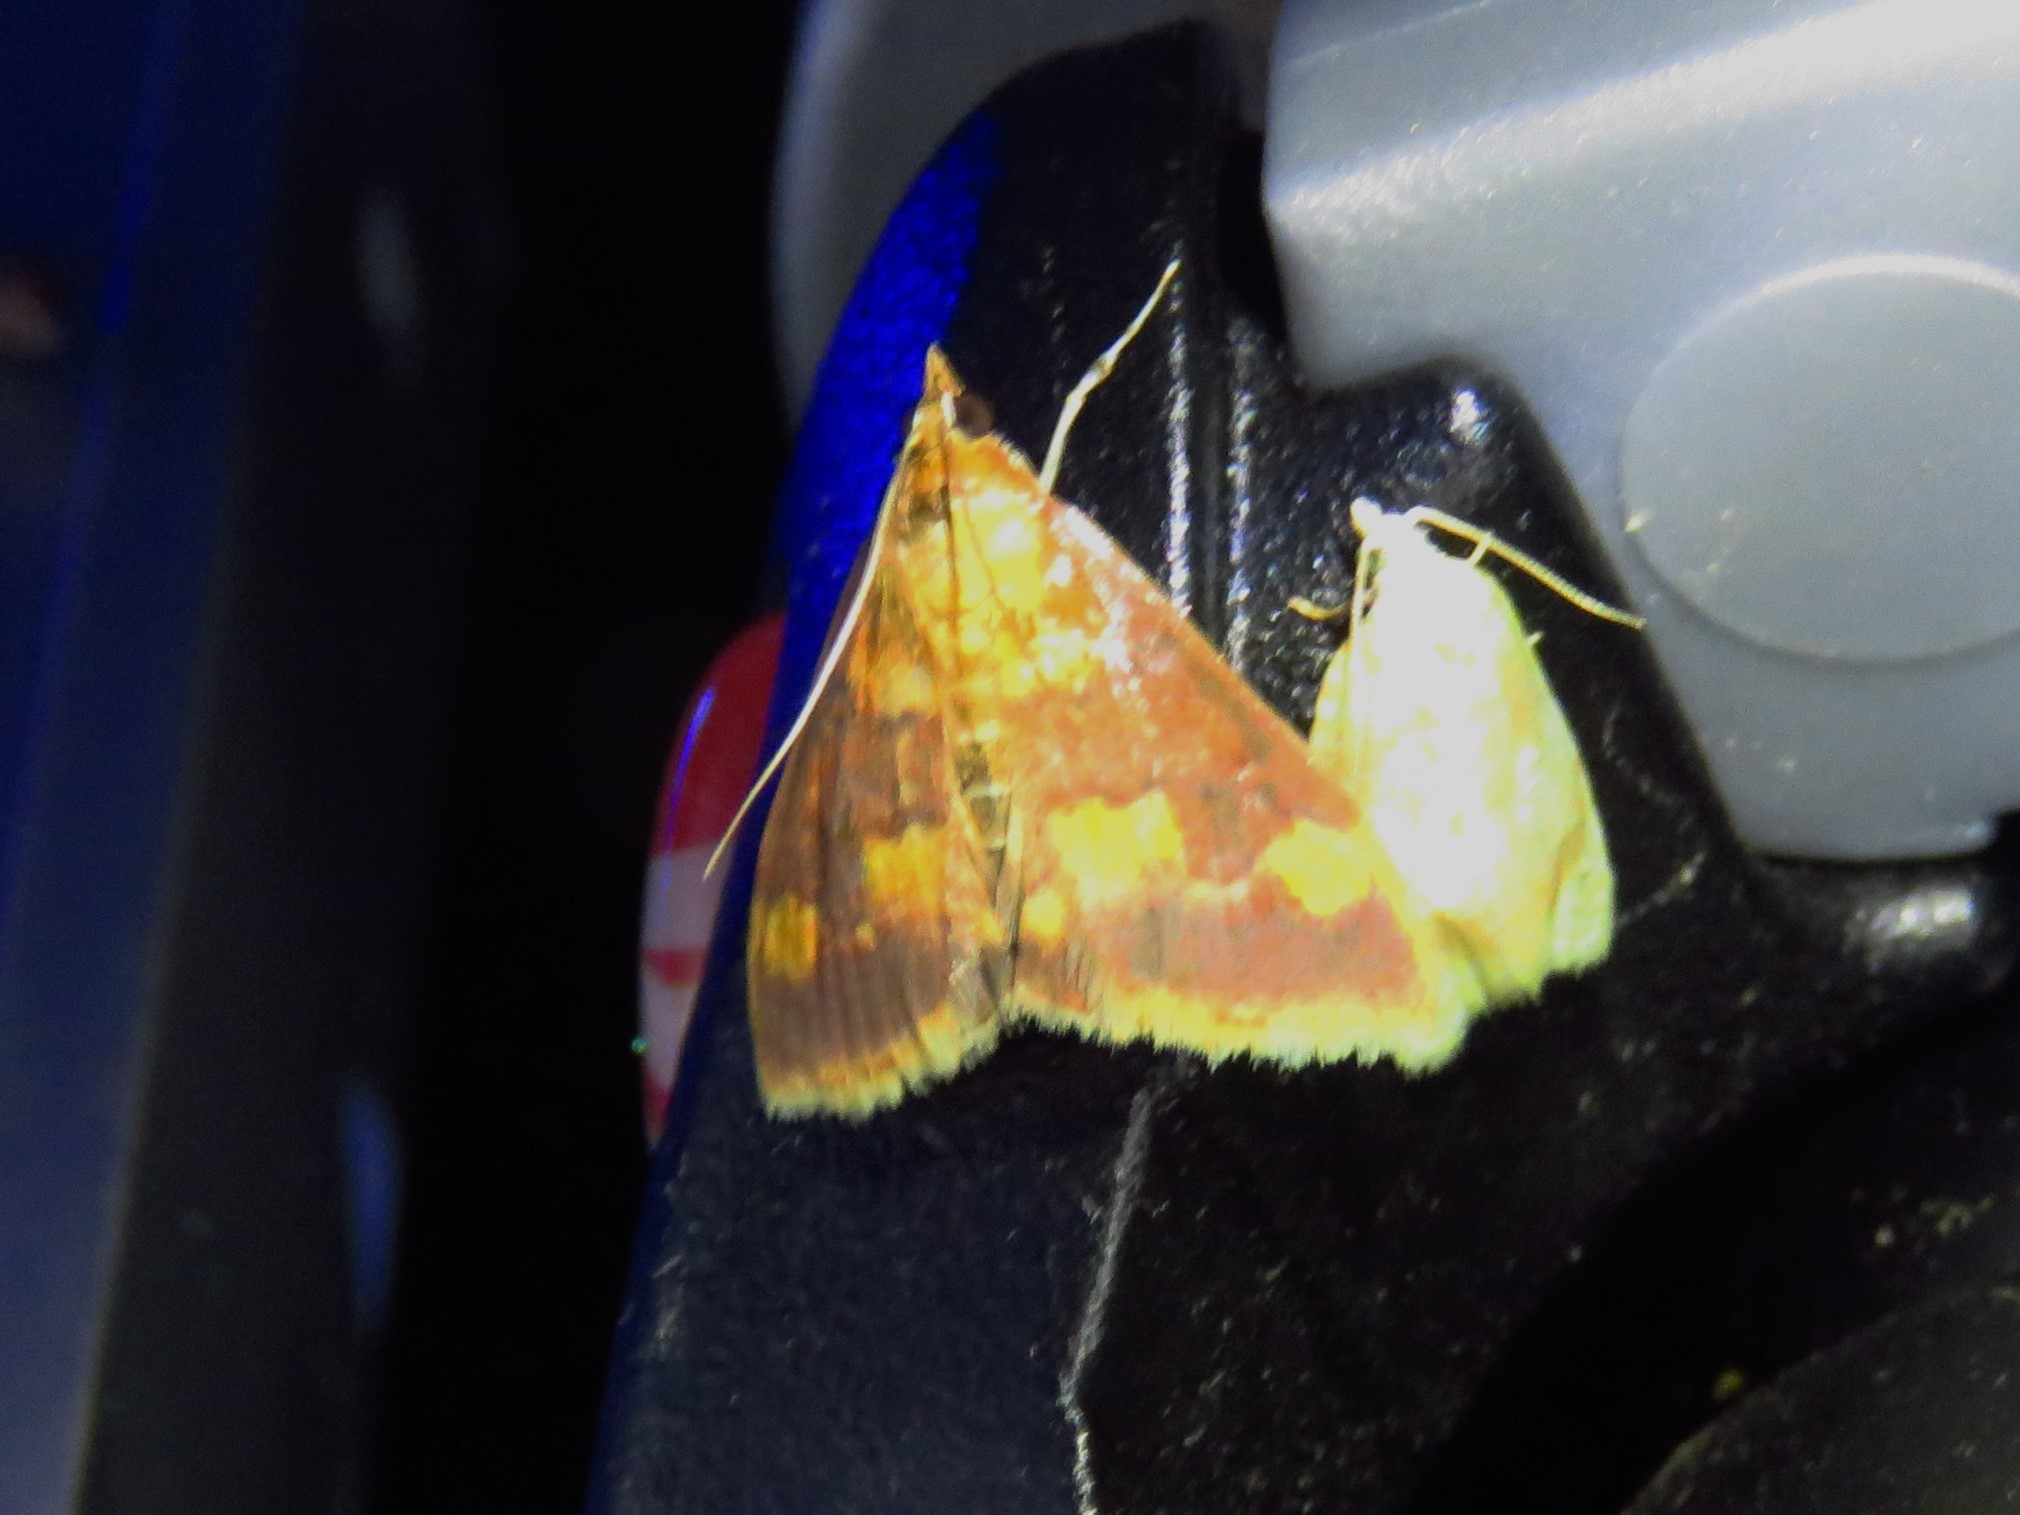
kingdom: Animalia
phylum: Arthropoda
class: Insecta
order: Lepidoptera
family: Crambidae
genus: Pyrausta
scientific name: Pyrausta onythesalis
